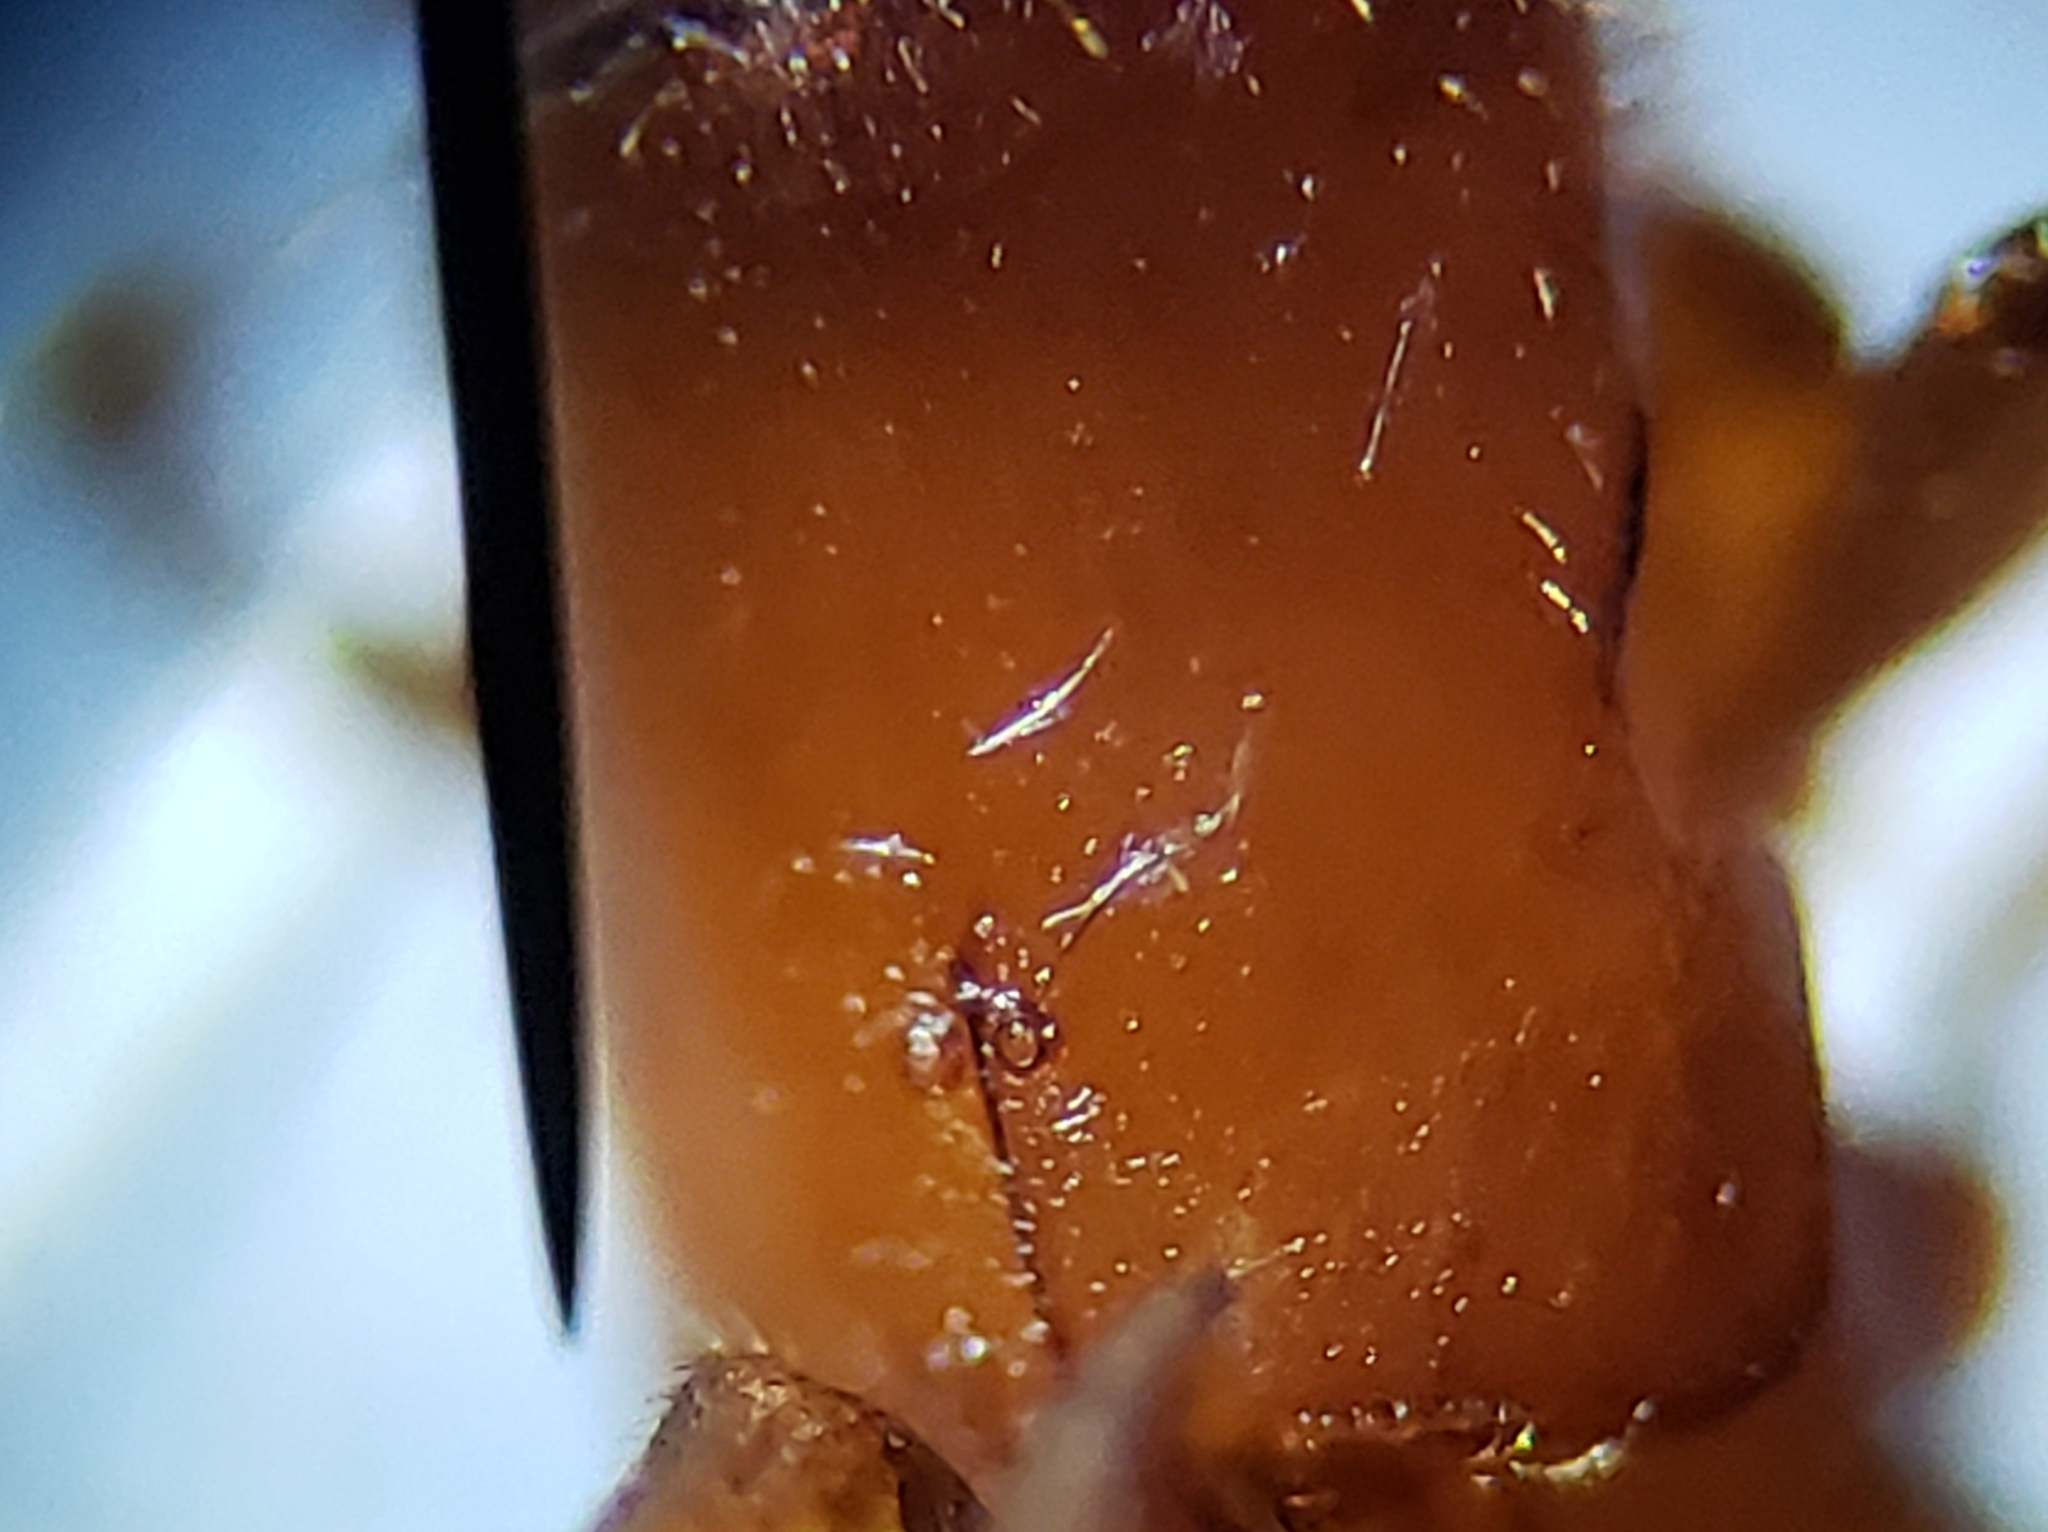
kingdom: Animalia
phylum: Arthropoda
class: Insecta
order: Coleoptera
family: Curculionidae
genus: Euplatypus
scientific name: Euplatypus compositus
